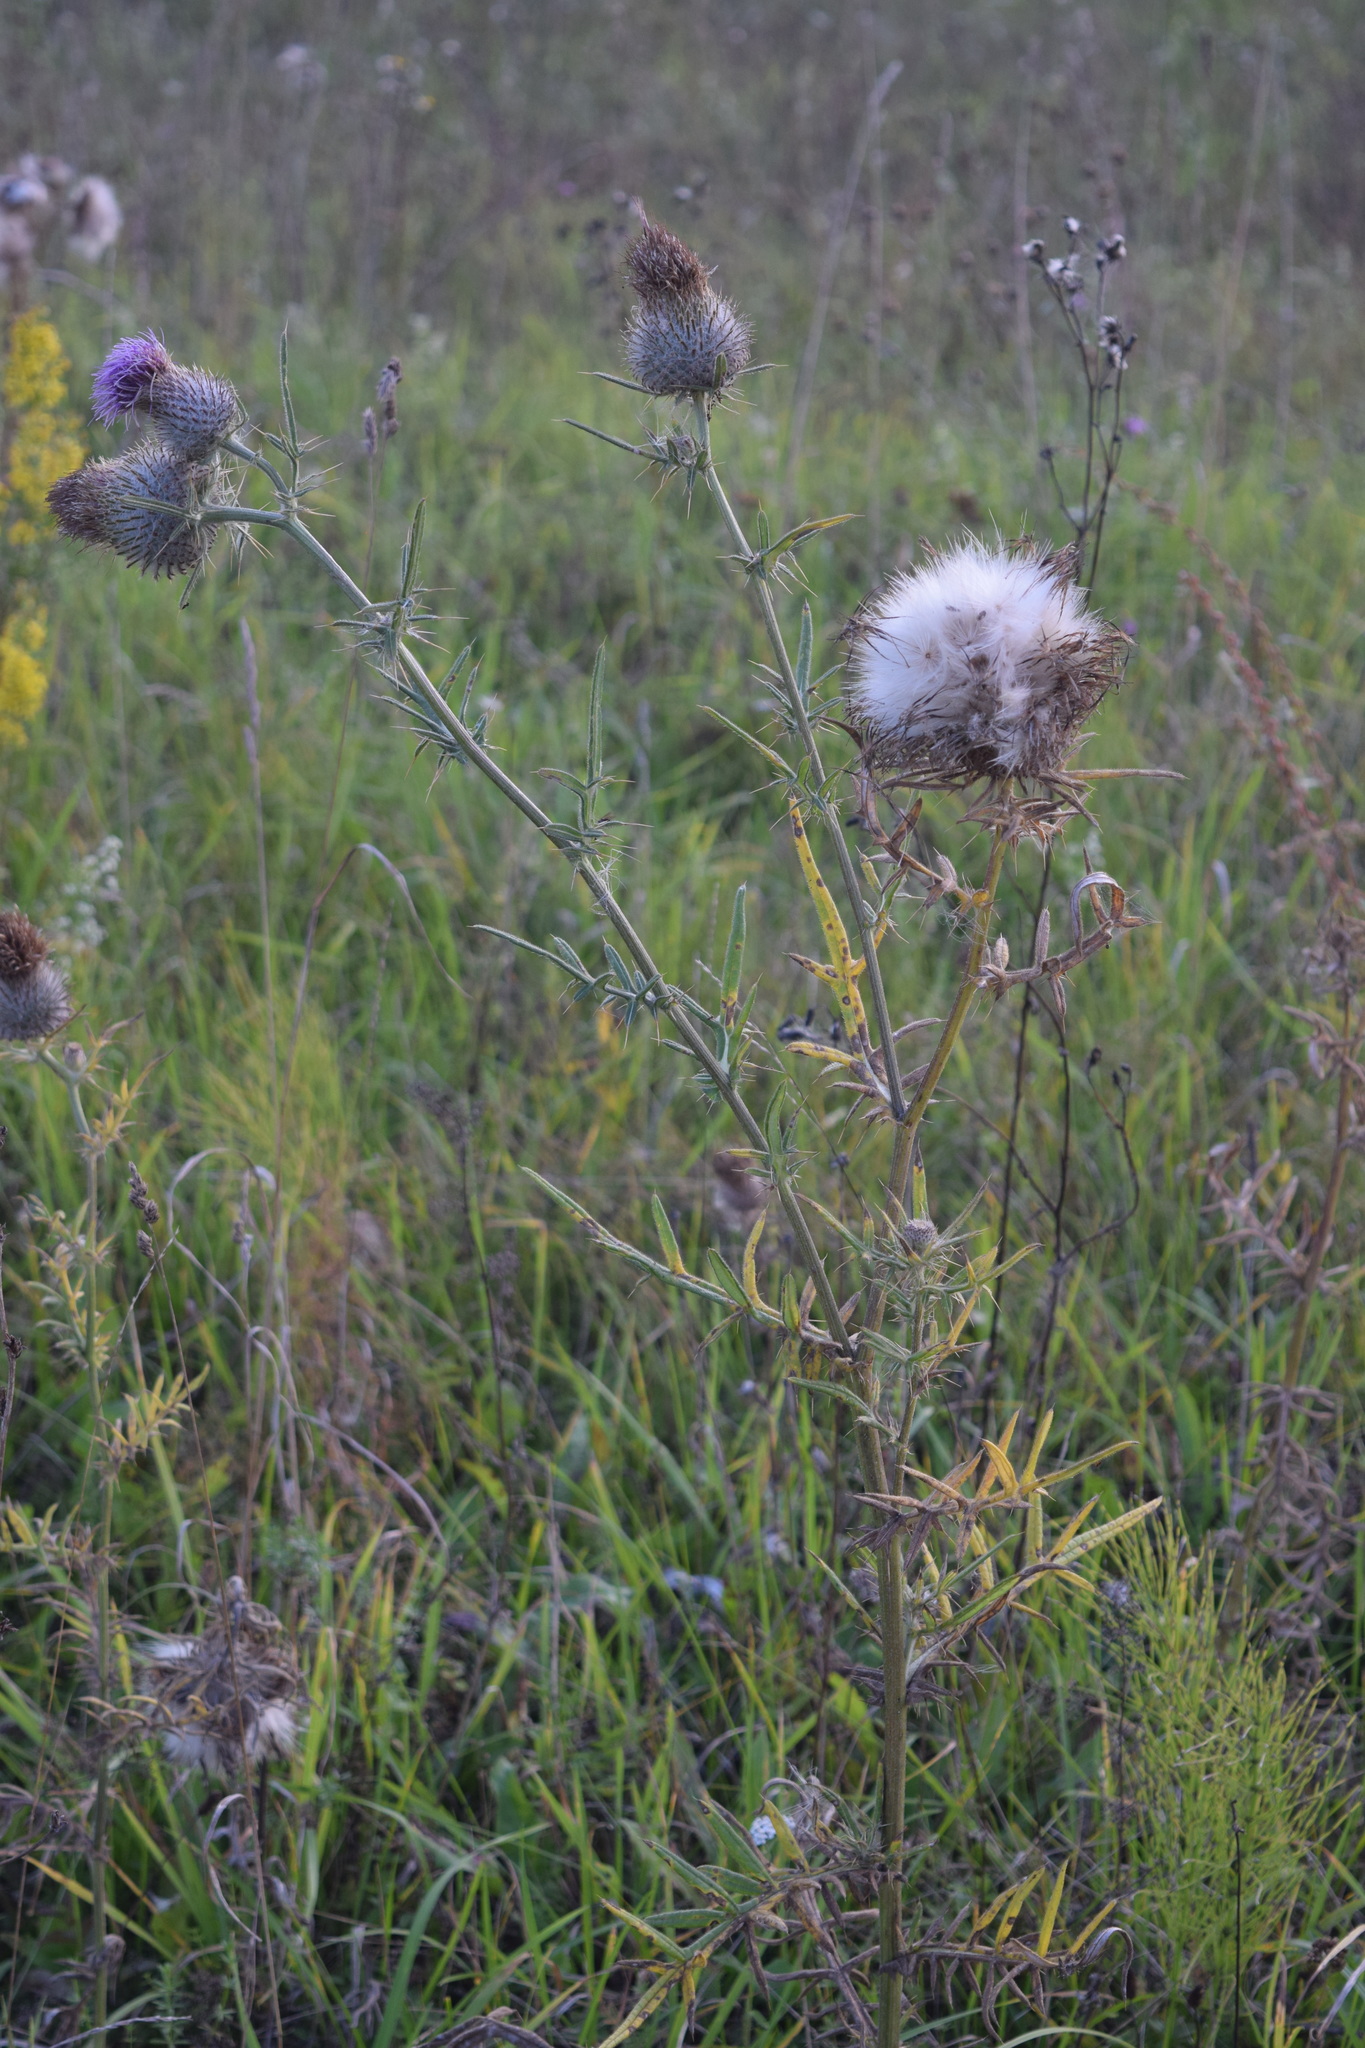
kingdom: Plantae
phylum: Tracheophyta
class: Magnoliopsida
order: Asterales
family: Asteraceae
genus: Lophiolepis
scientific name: Lophiolepis decussata
